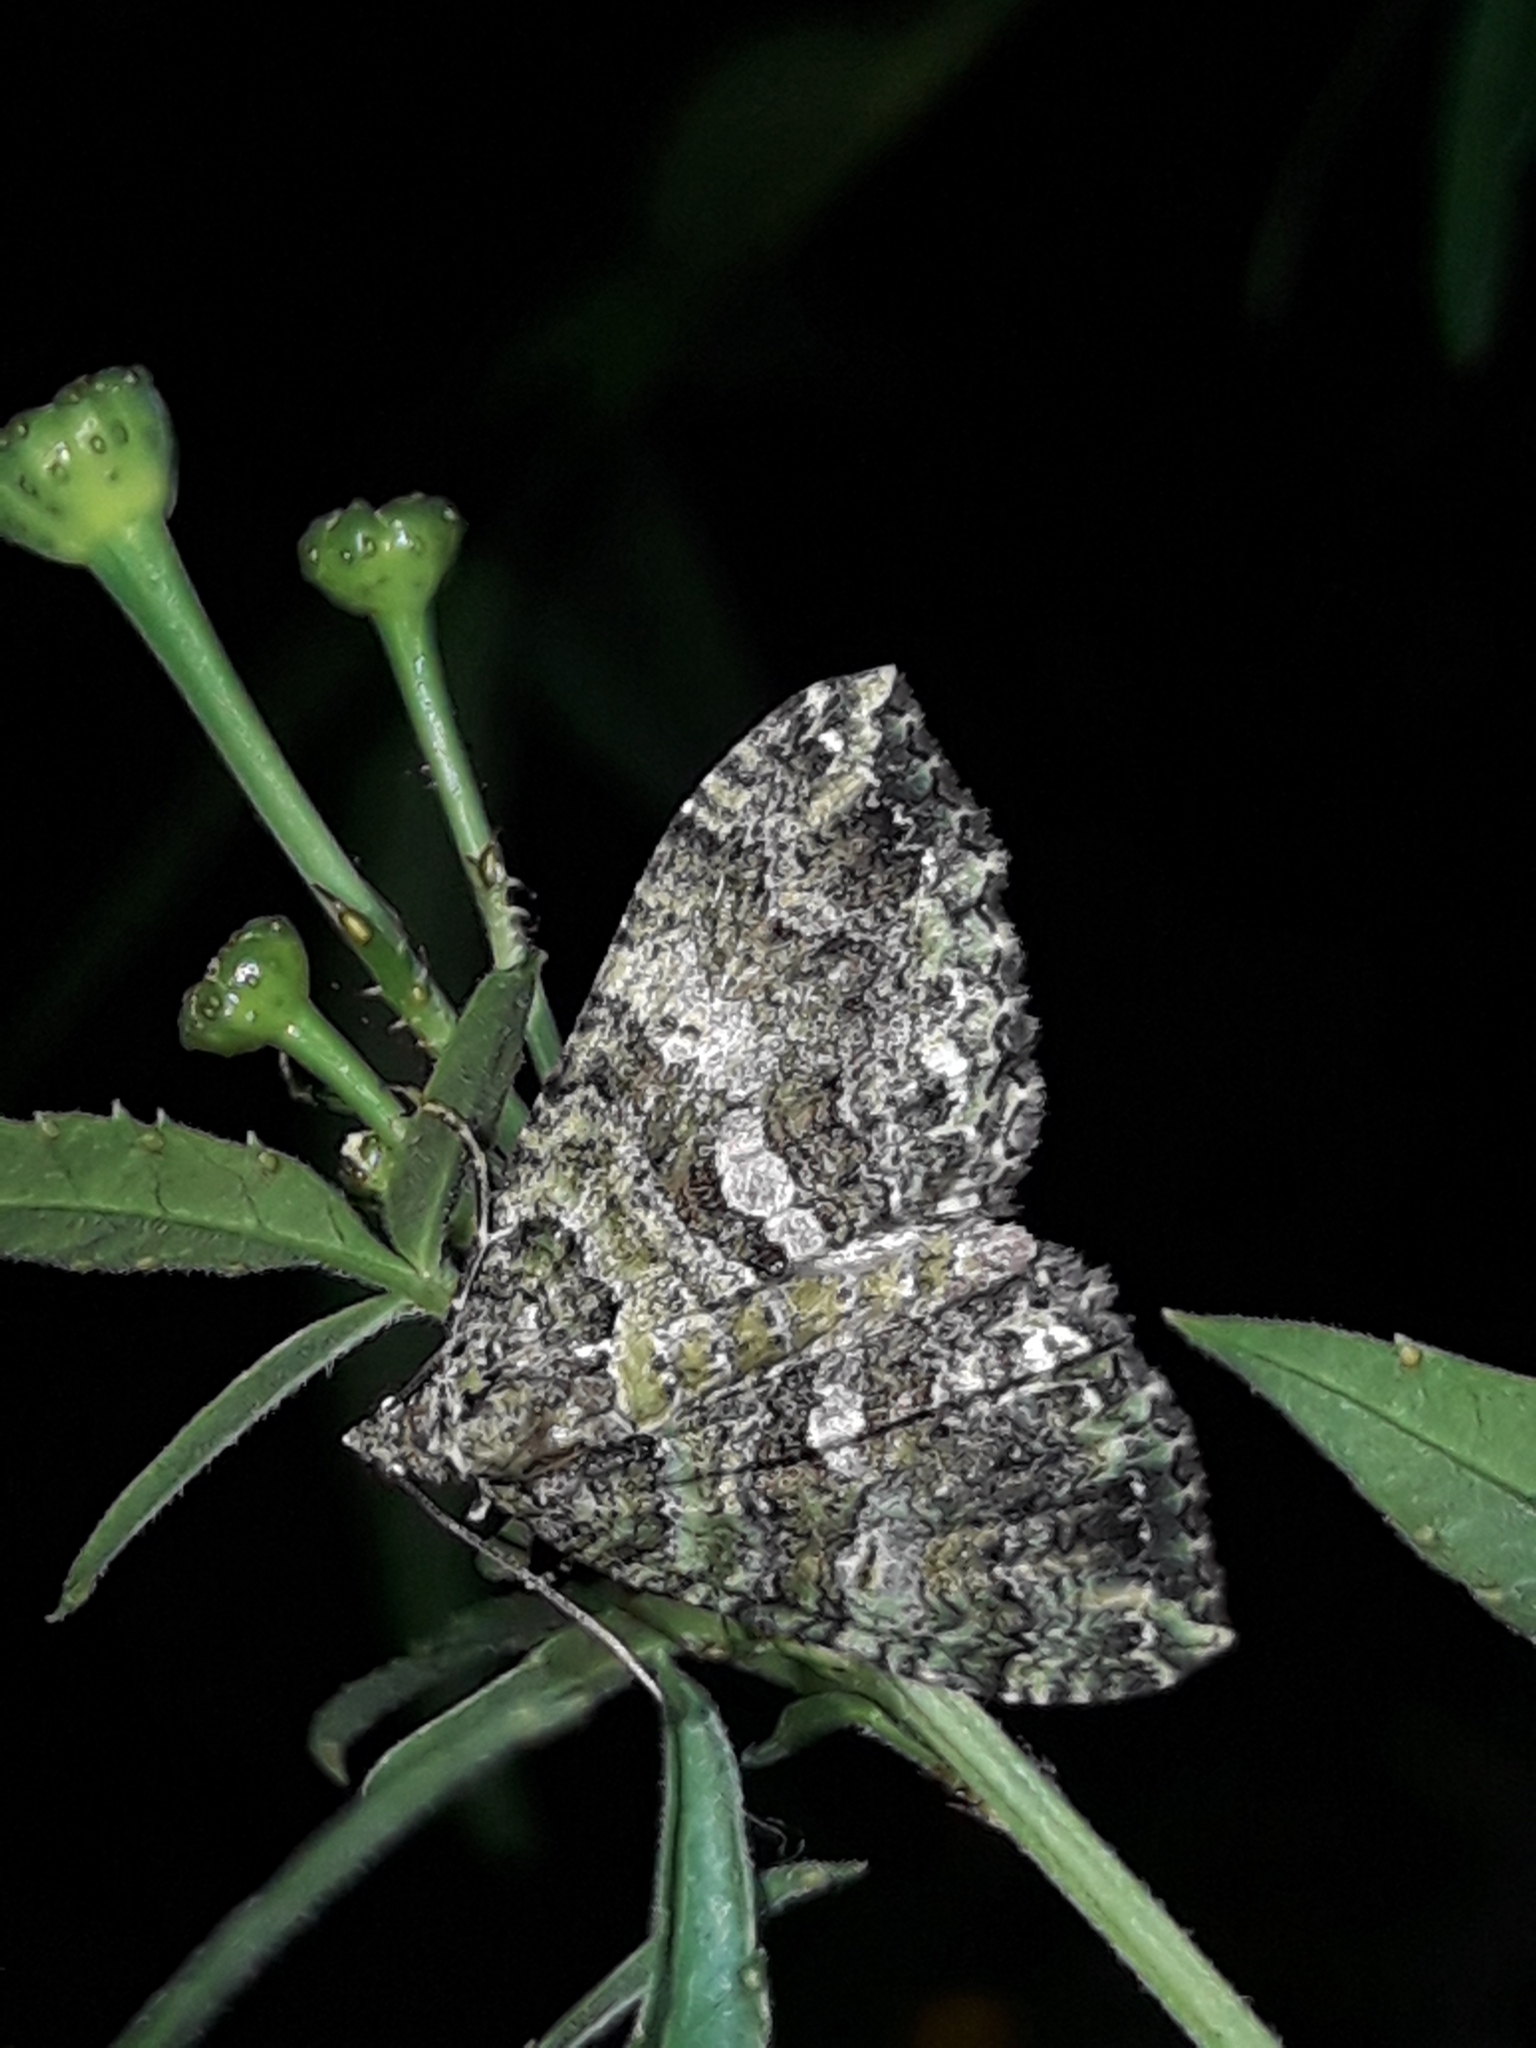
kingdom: Animalia
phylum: Arthropoda
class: Insecta
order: Lepidoptera
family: Geometridae
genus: Austrocidaria
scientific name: Austrocidaria similata
